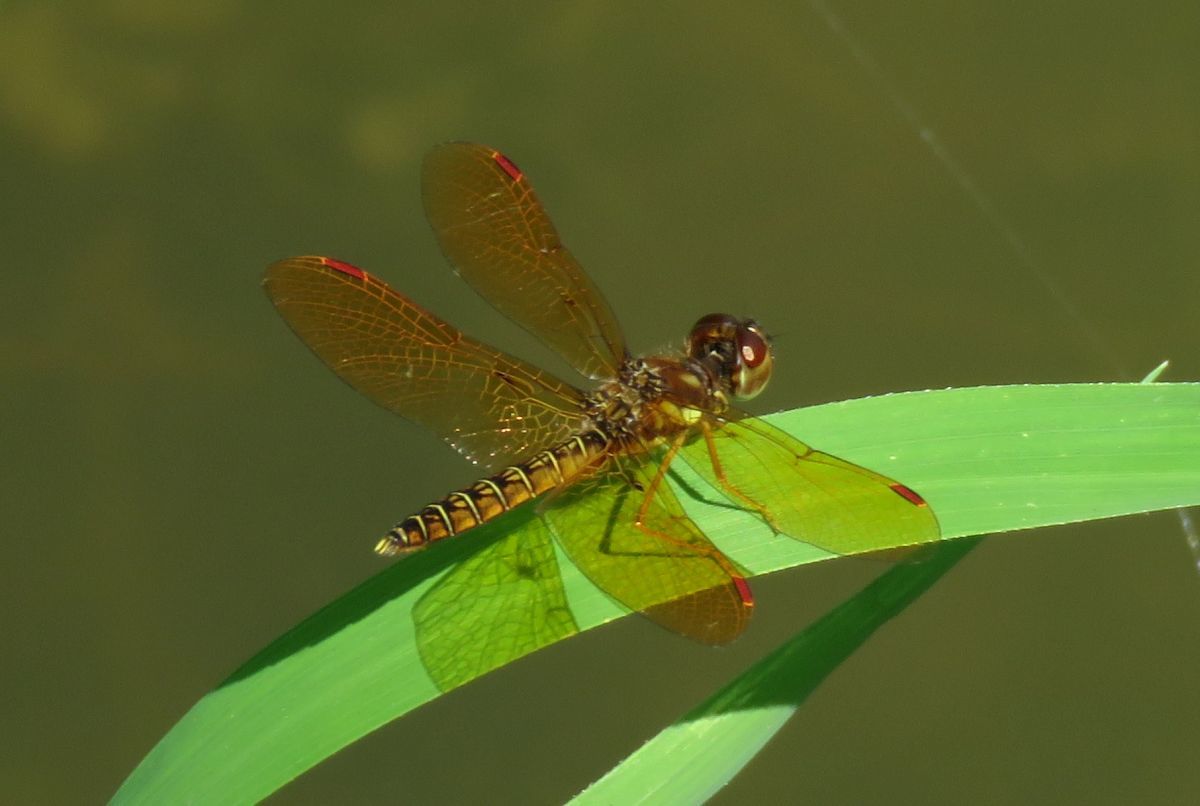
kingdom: Animalia
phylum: Arthropoda
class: Insecta
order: Odonata
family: Libellulidae
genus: Perithemis
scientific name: Perithemis tenera
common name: Eastern amberwing
